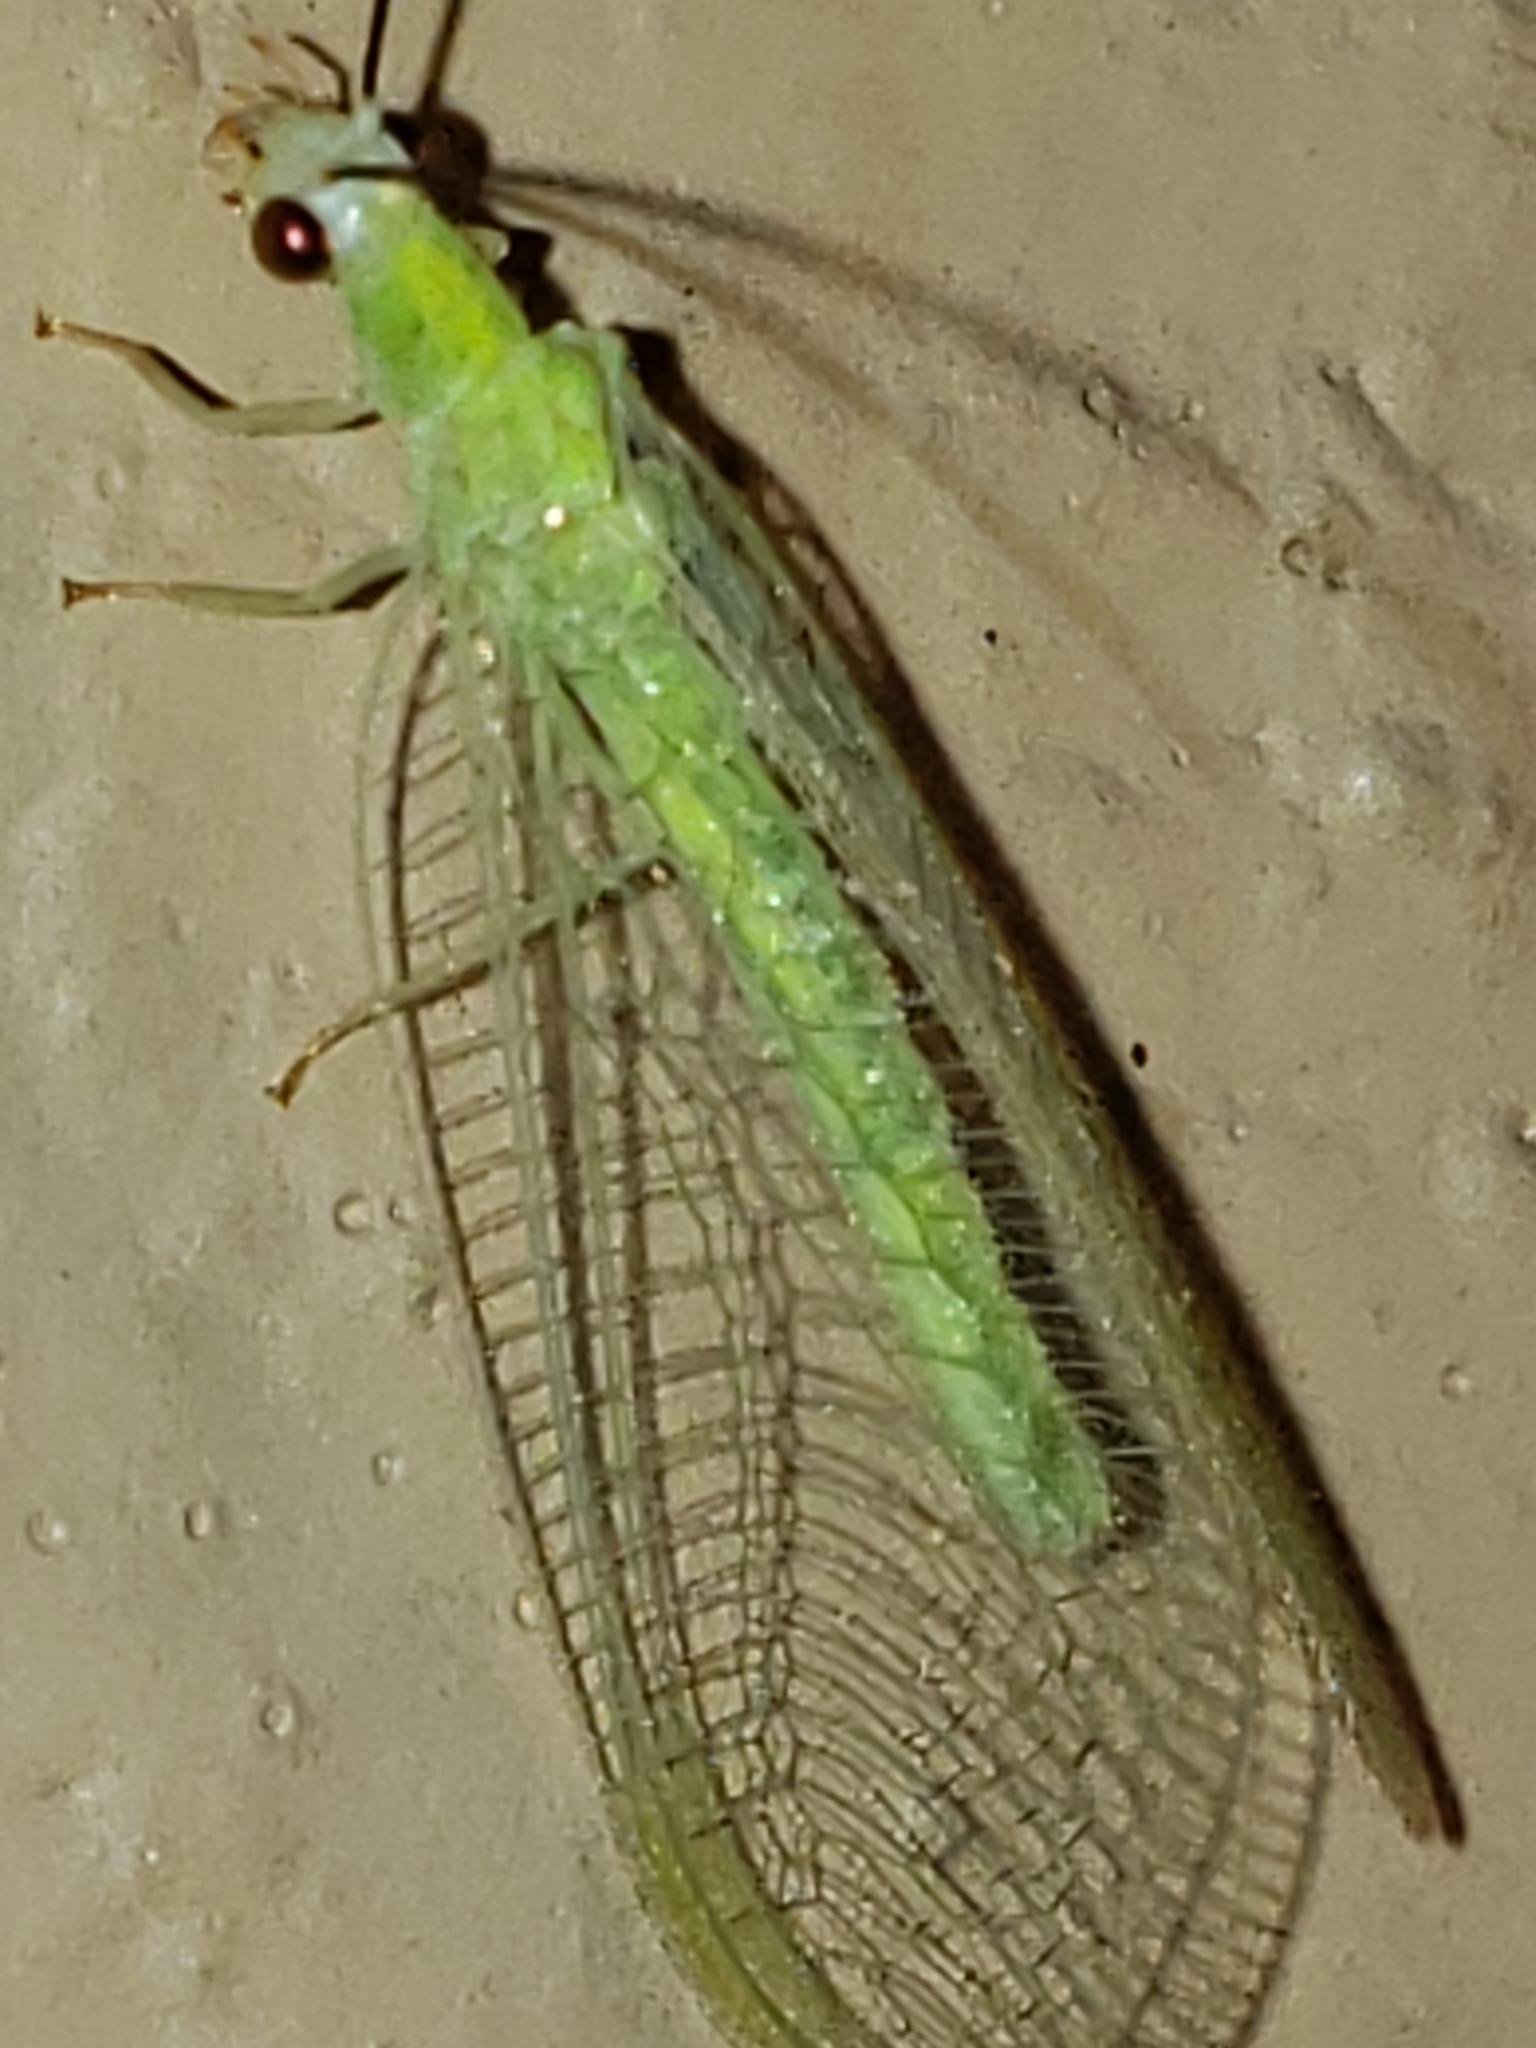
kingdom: Animalia
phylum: Arthropoda
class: Insecta
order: Neuroptera
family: Chrysopidae
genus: Chrysopa
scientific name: Chrysopa nigricornis
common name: Black-horned green lacewing
